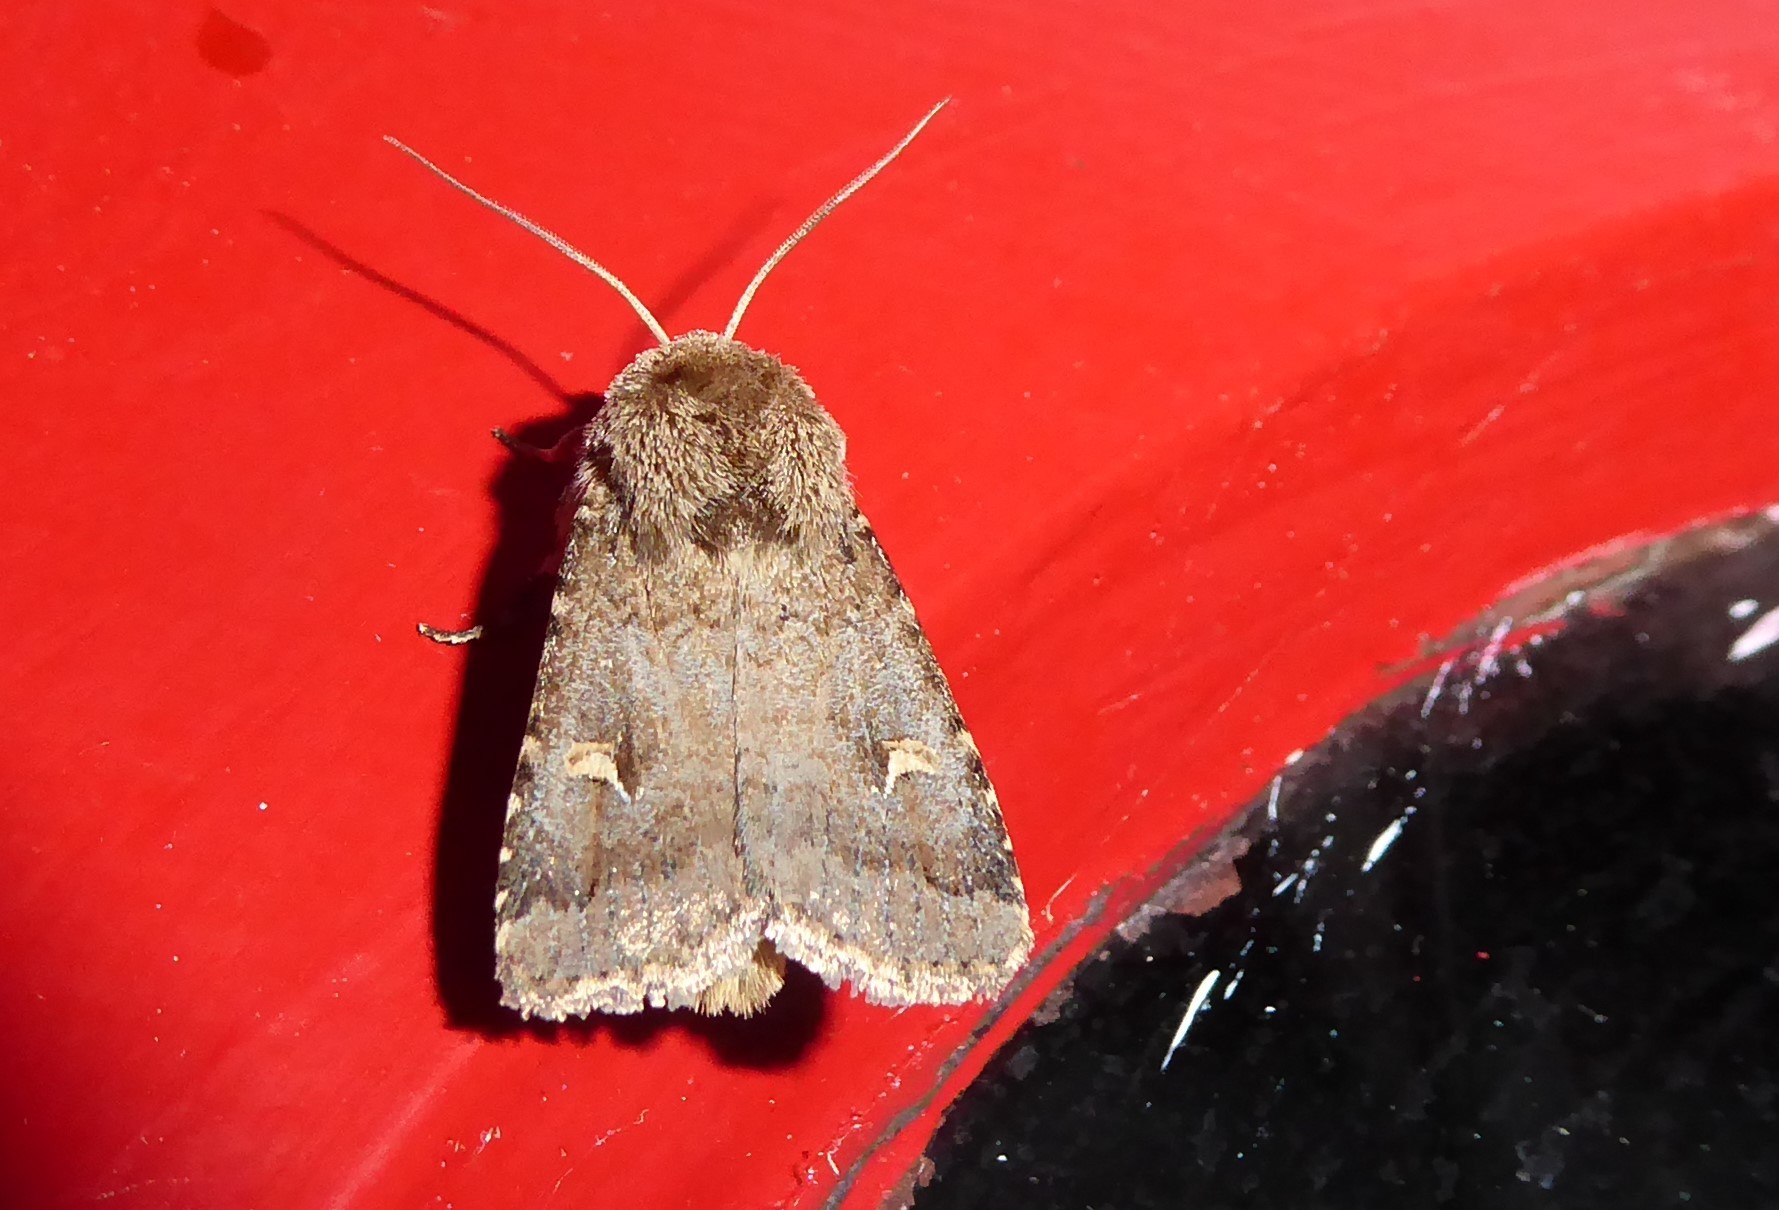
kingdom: Animalia
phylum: Arthropoda
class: Insecta
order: Lepidoptera
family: Noctuidae
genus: Proteuxoa
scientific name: Proteuxoa tetronycha
